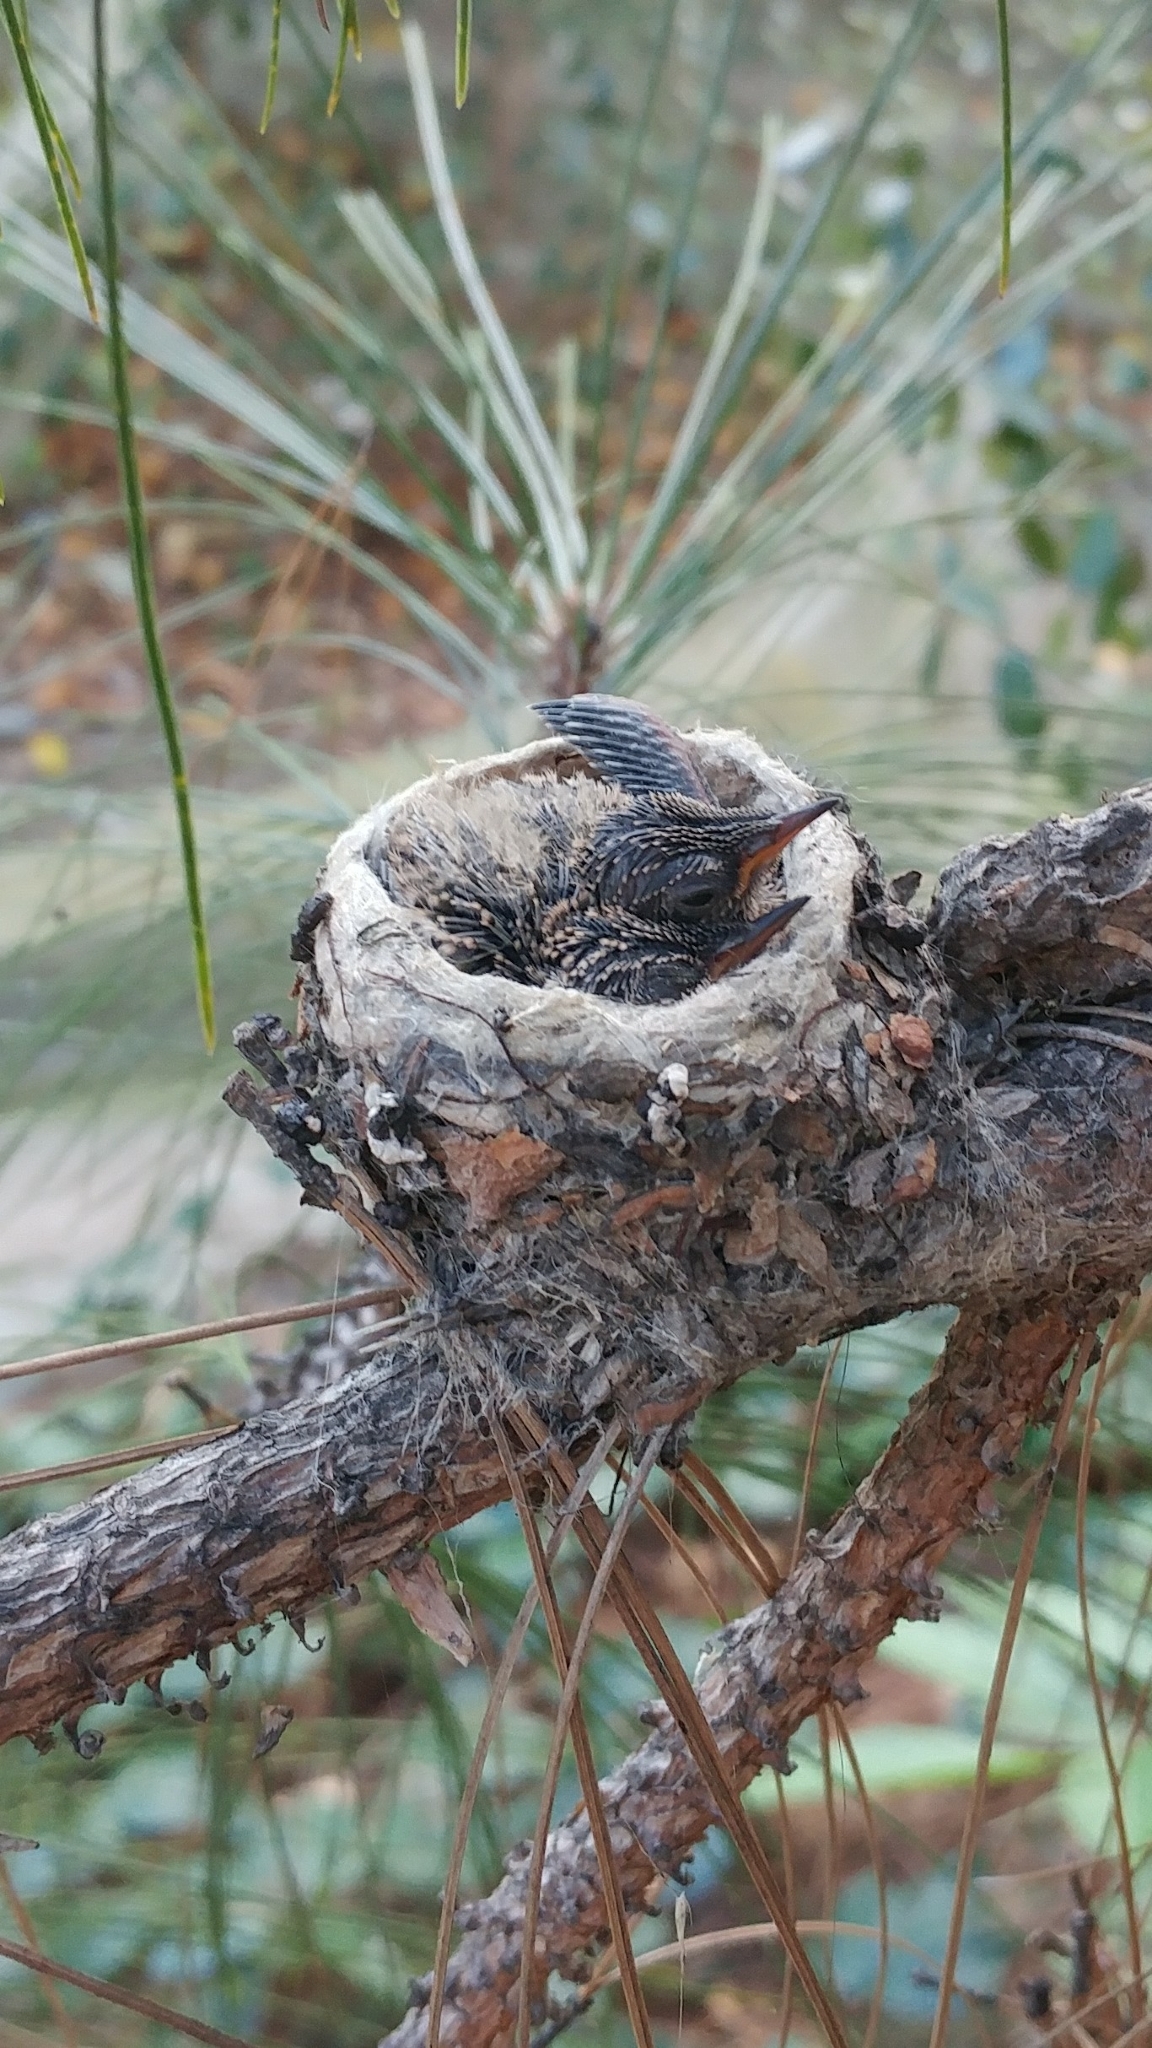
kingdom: Animalia
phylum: Chordata
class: Aves
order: Apodiformes
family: Trochilidae
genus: Calypte
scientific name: Calypte anna
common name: Anna's hummingbird
